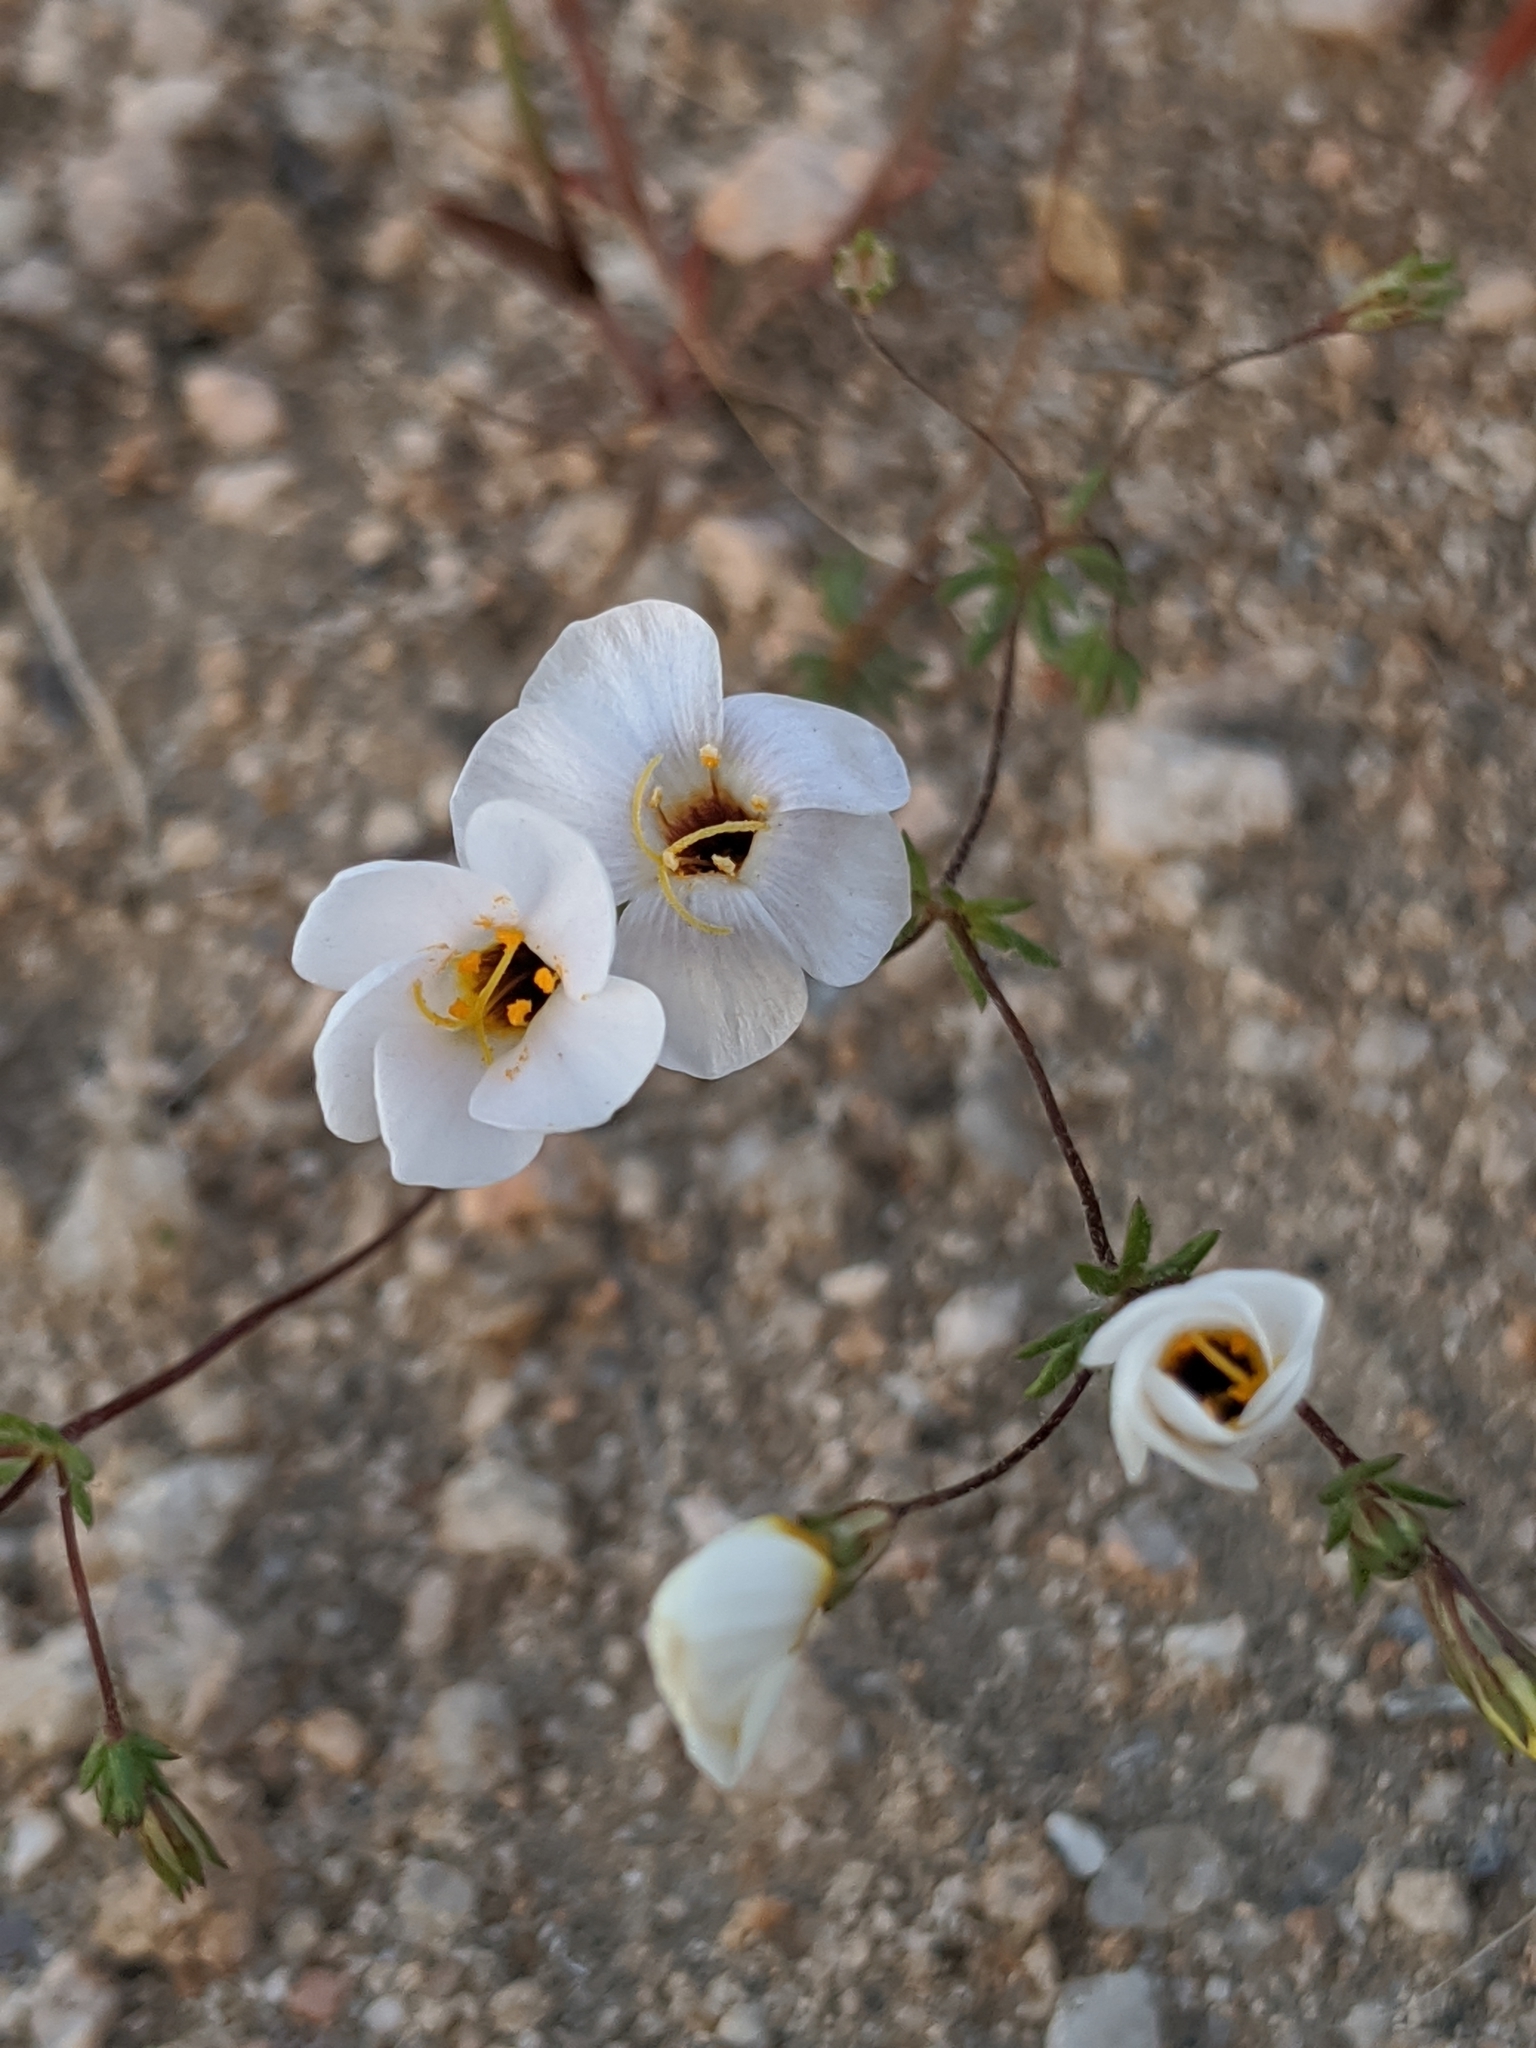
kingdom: Plantae
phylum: Tracheophyta
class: Magnoliopsida
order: Ericales
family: Polemoniaceae
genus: Leptosiphon
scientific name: Leptosiphon chrysanthus
